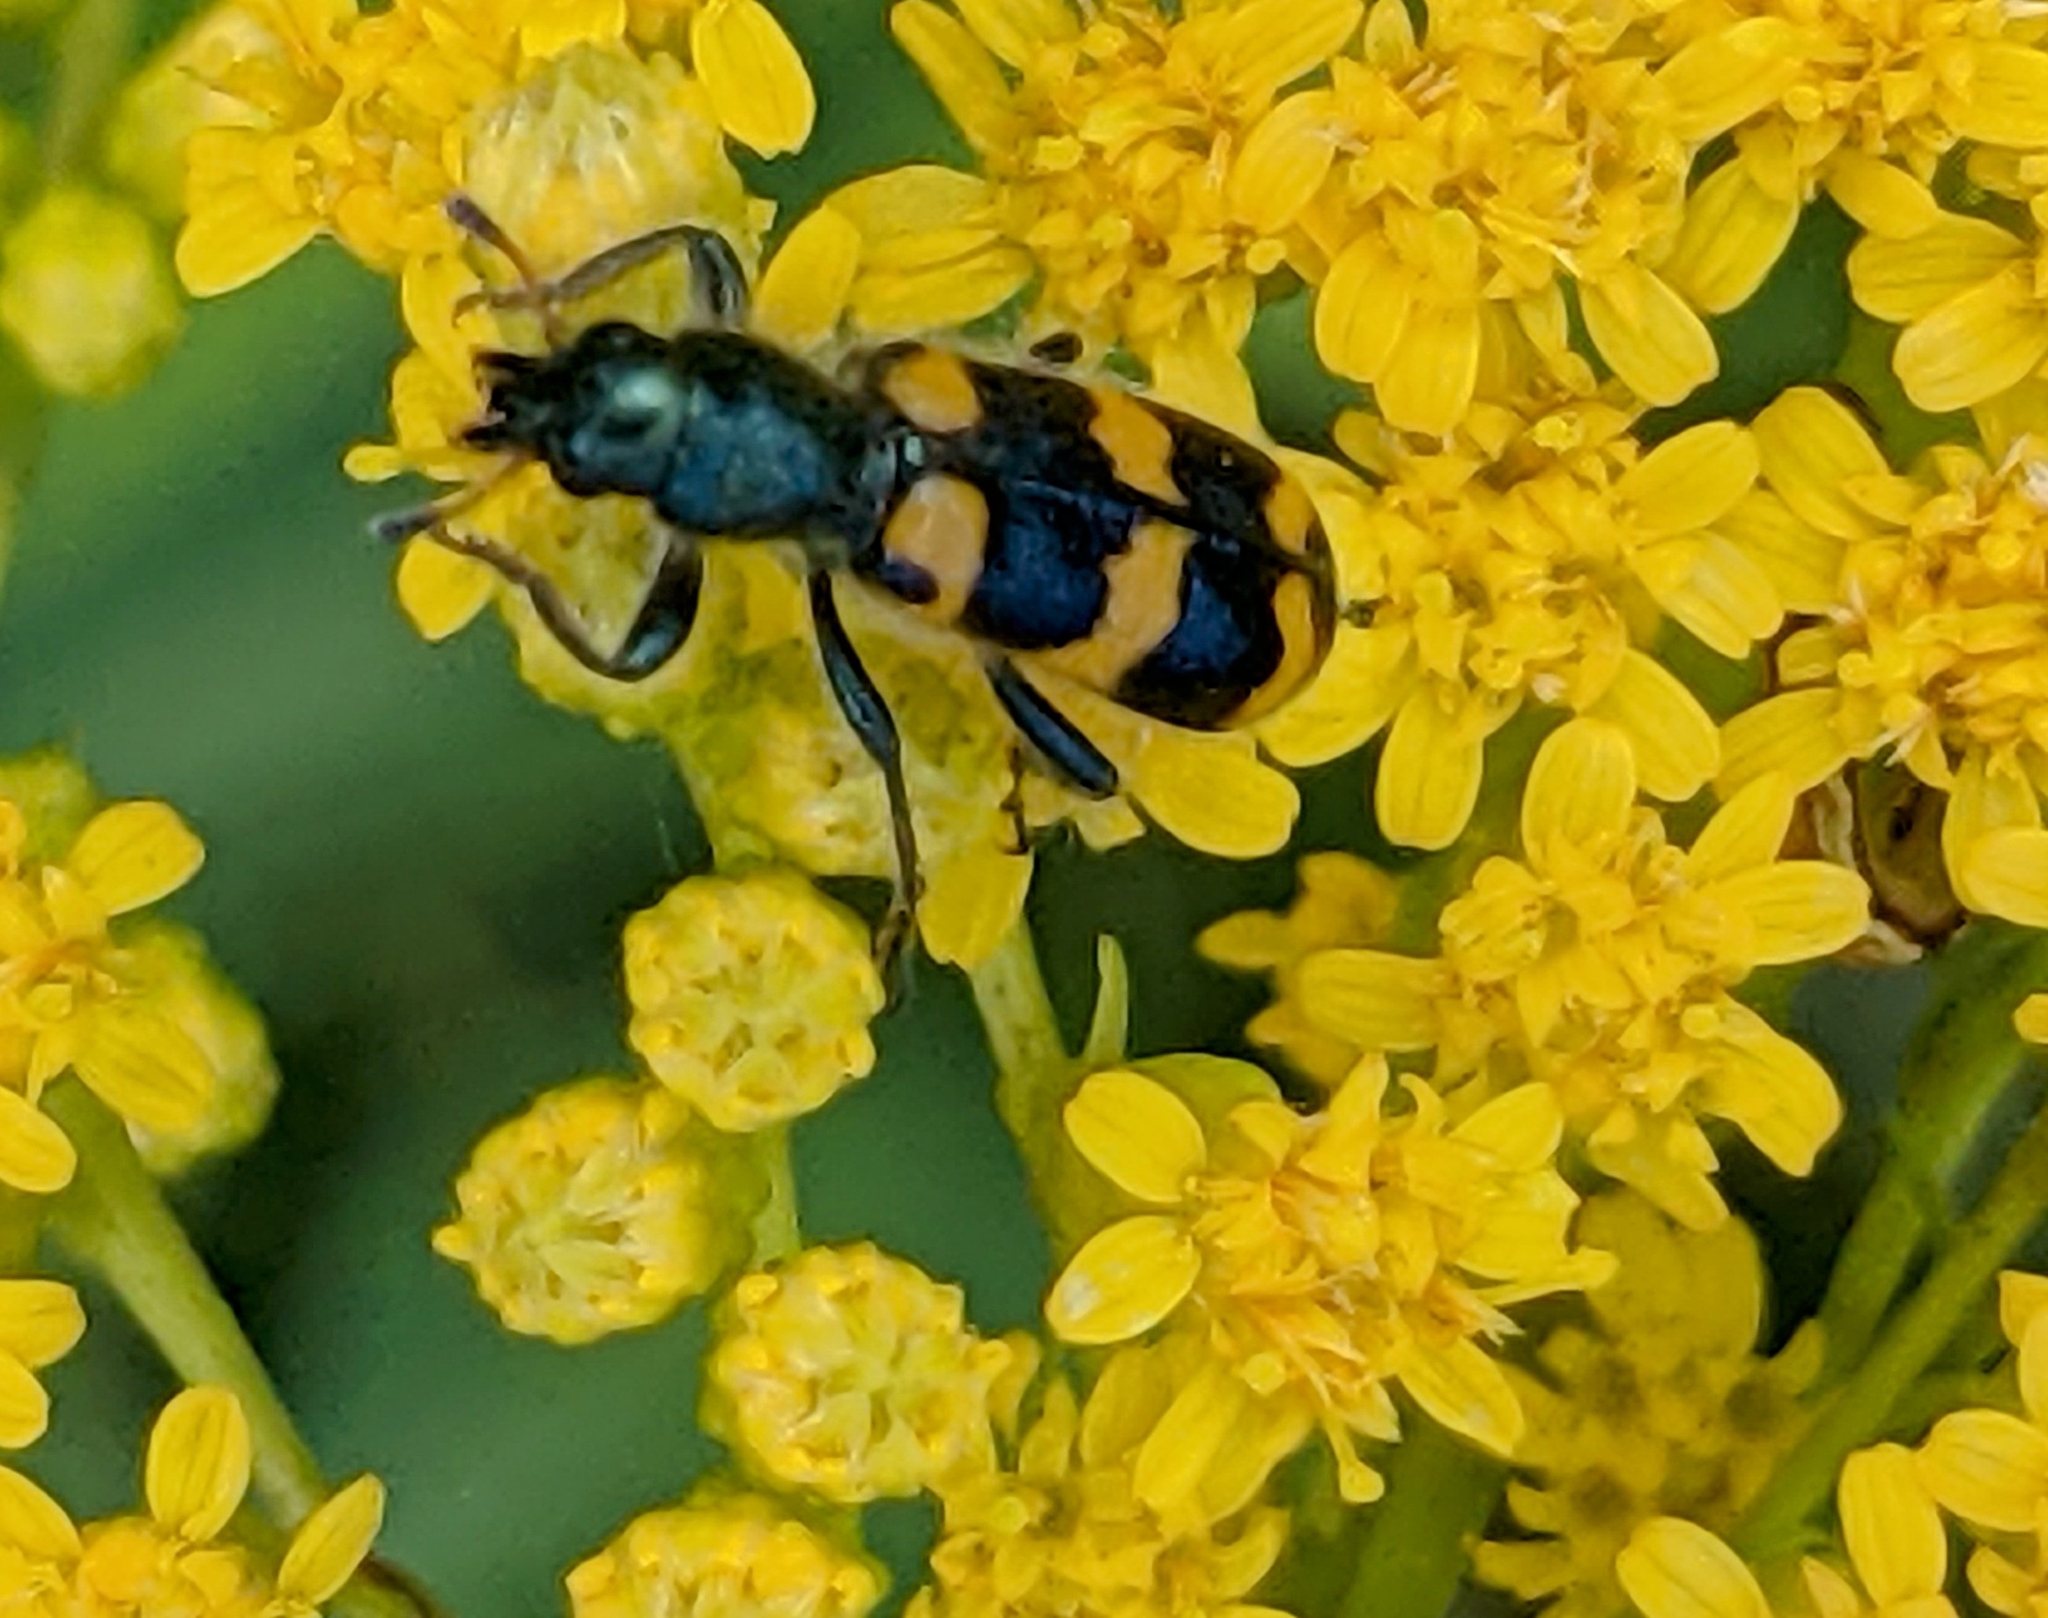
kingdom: Animalia
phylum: Arthropoda
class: Insecta
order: Coleoptera
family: Cleridae
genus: Trichodes
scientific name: Trichodes nutalli
